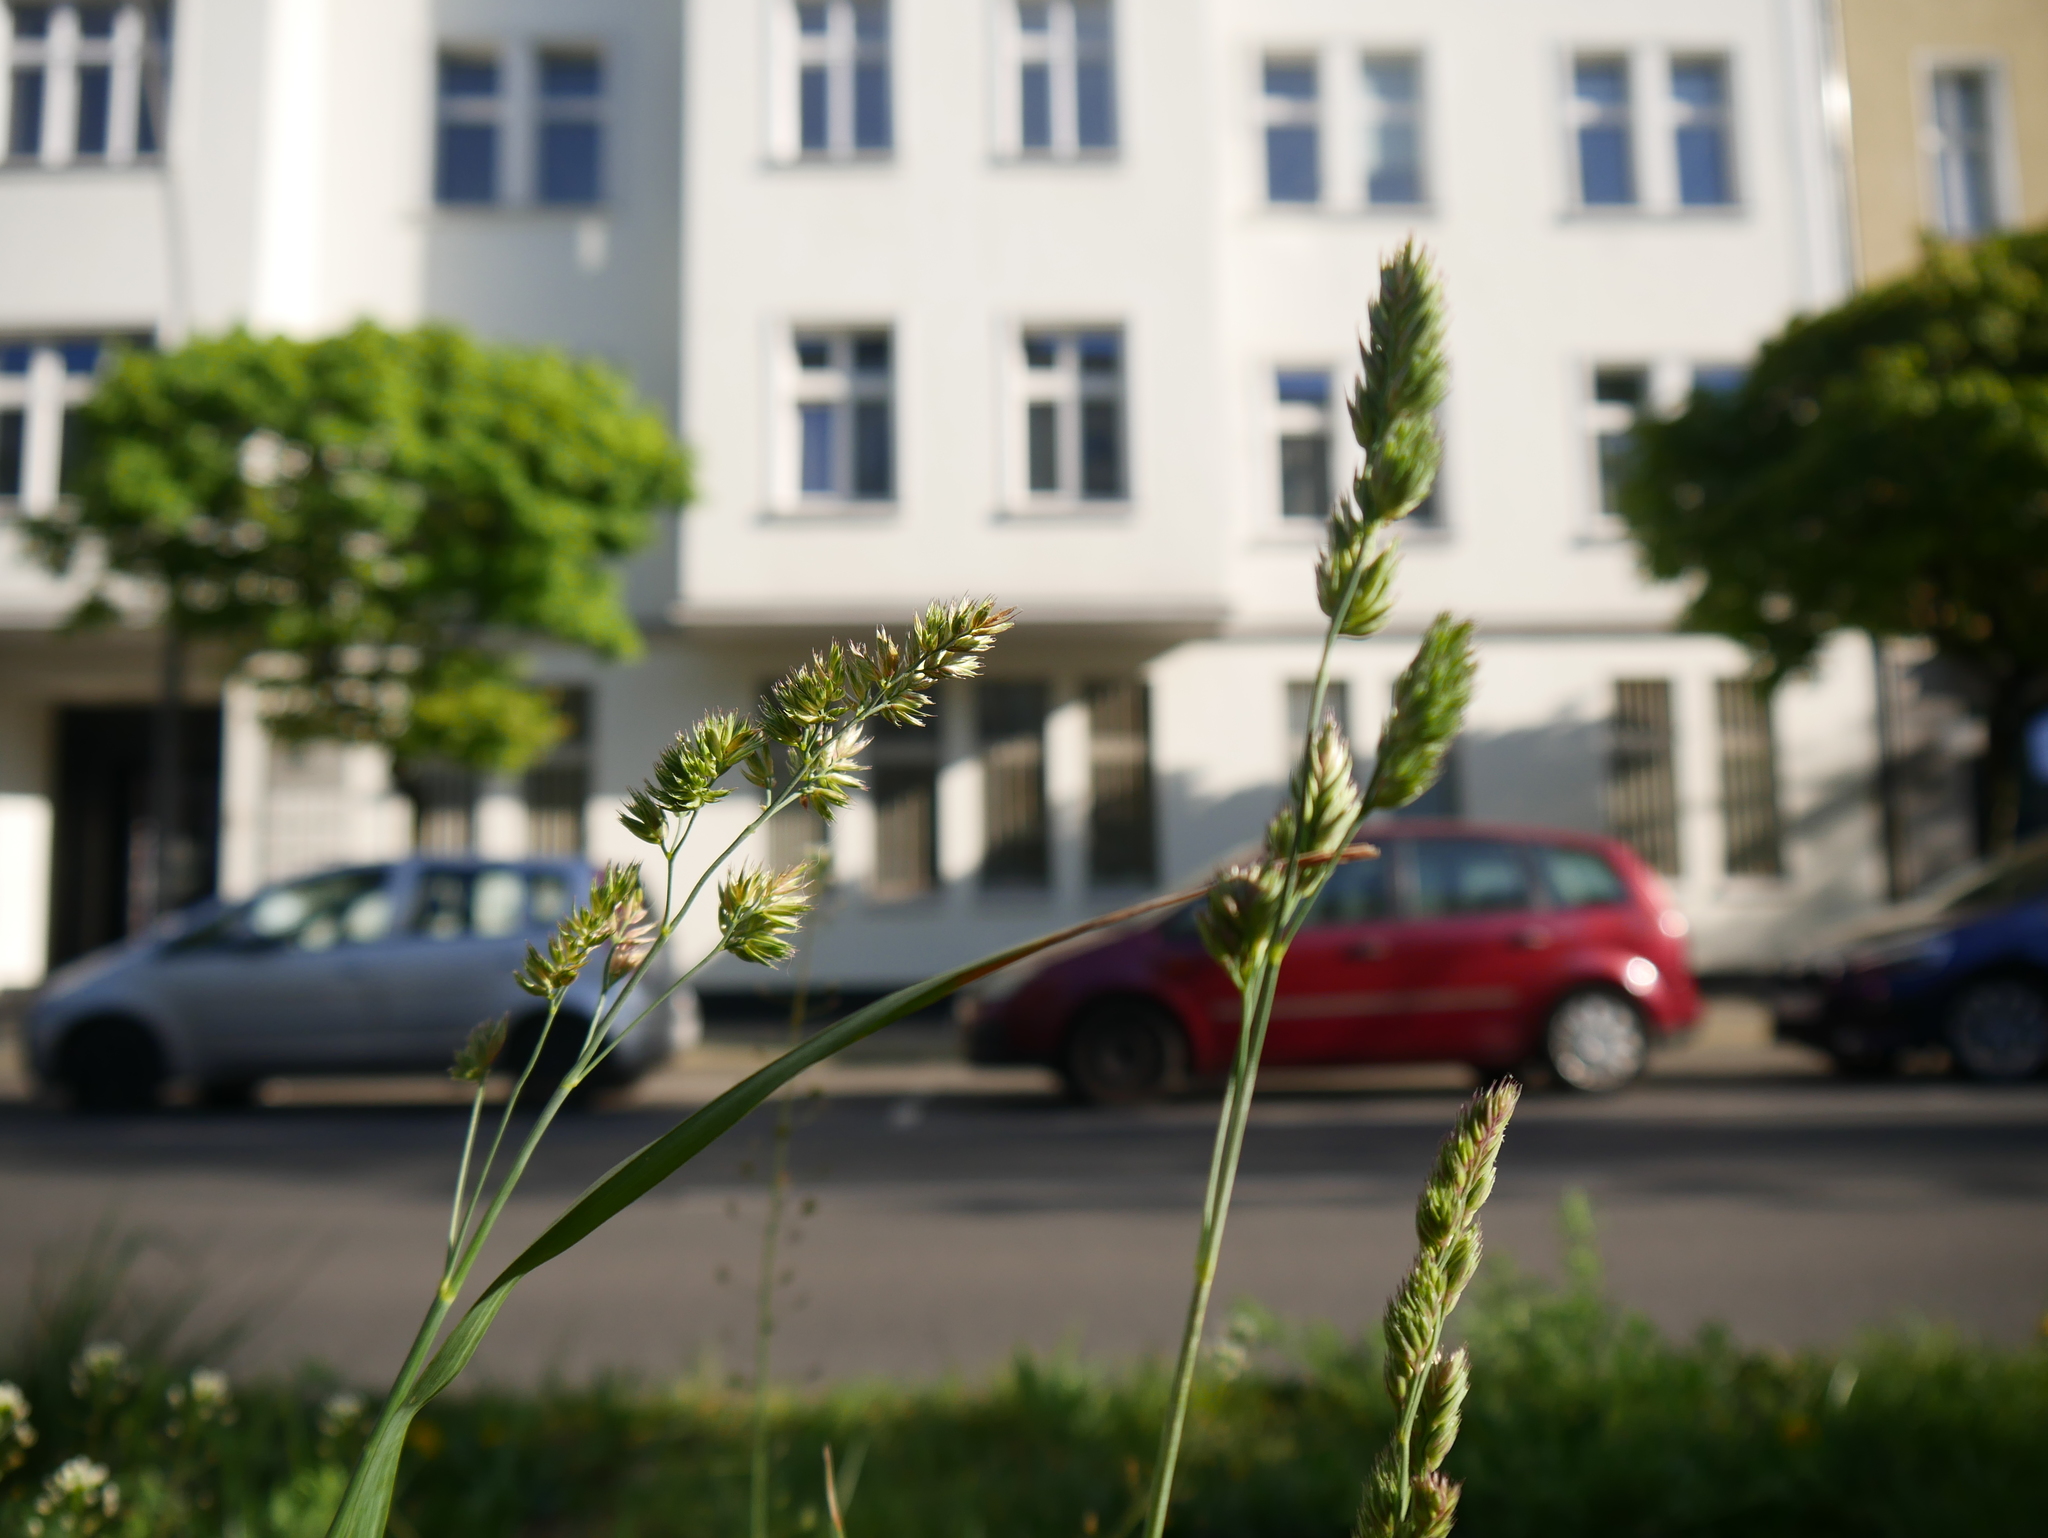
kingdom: Plantae
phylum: Tracheophyta
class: Liliopsida
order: Poales
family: Poaceae
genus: Dactylis
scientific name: Dactylis glomerata
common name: Orchardgrass
